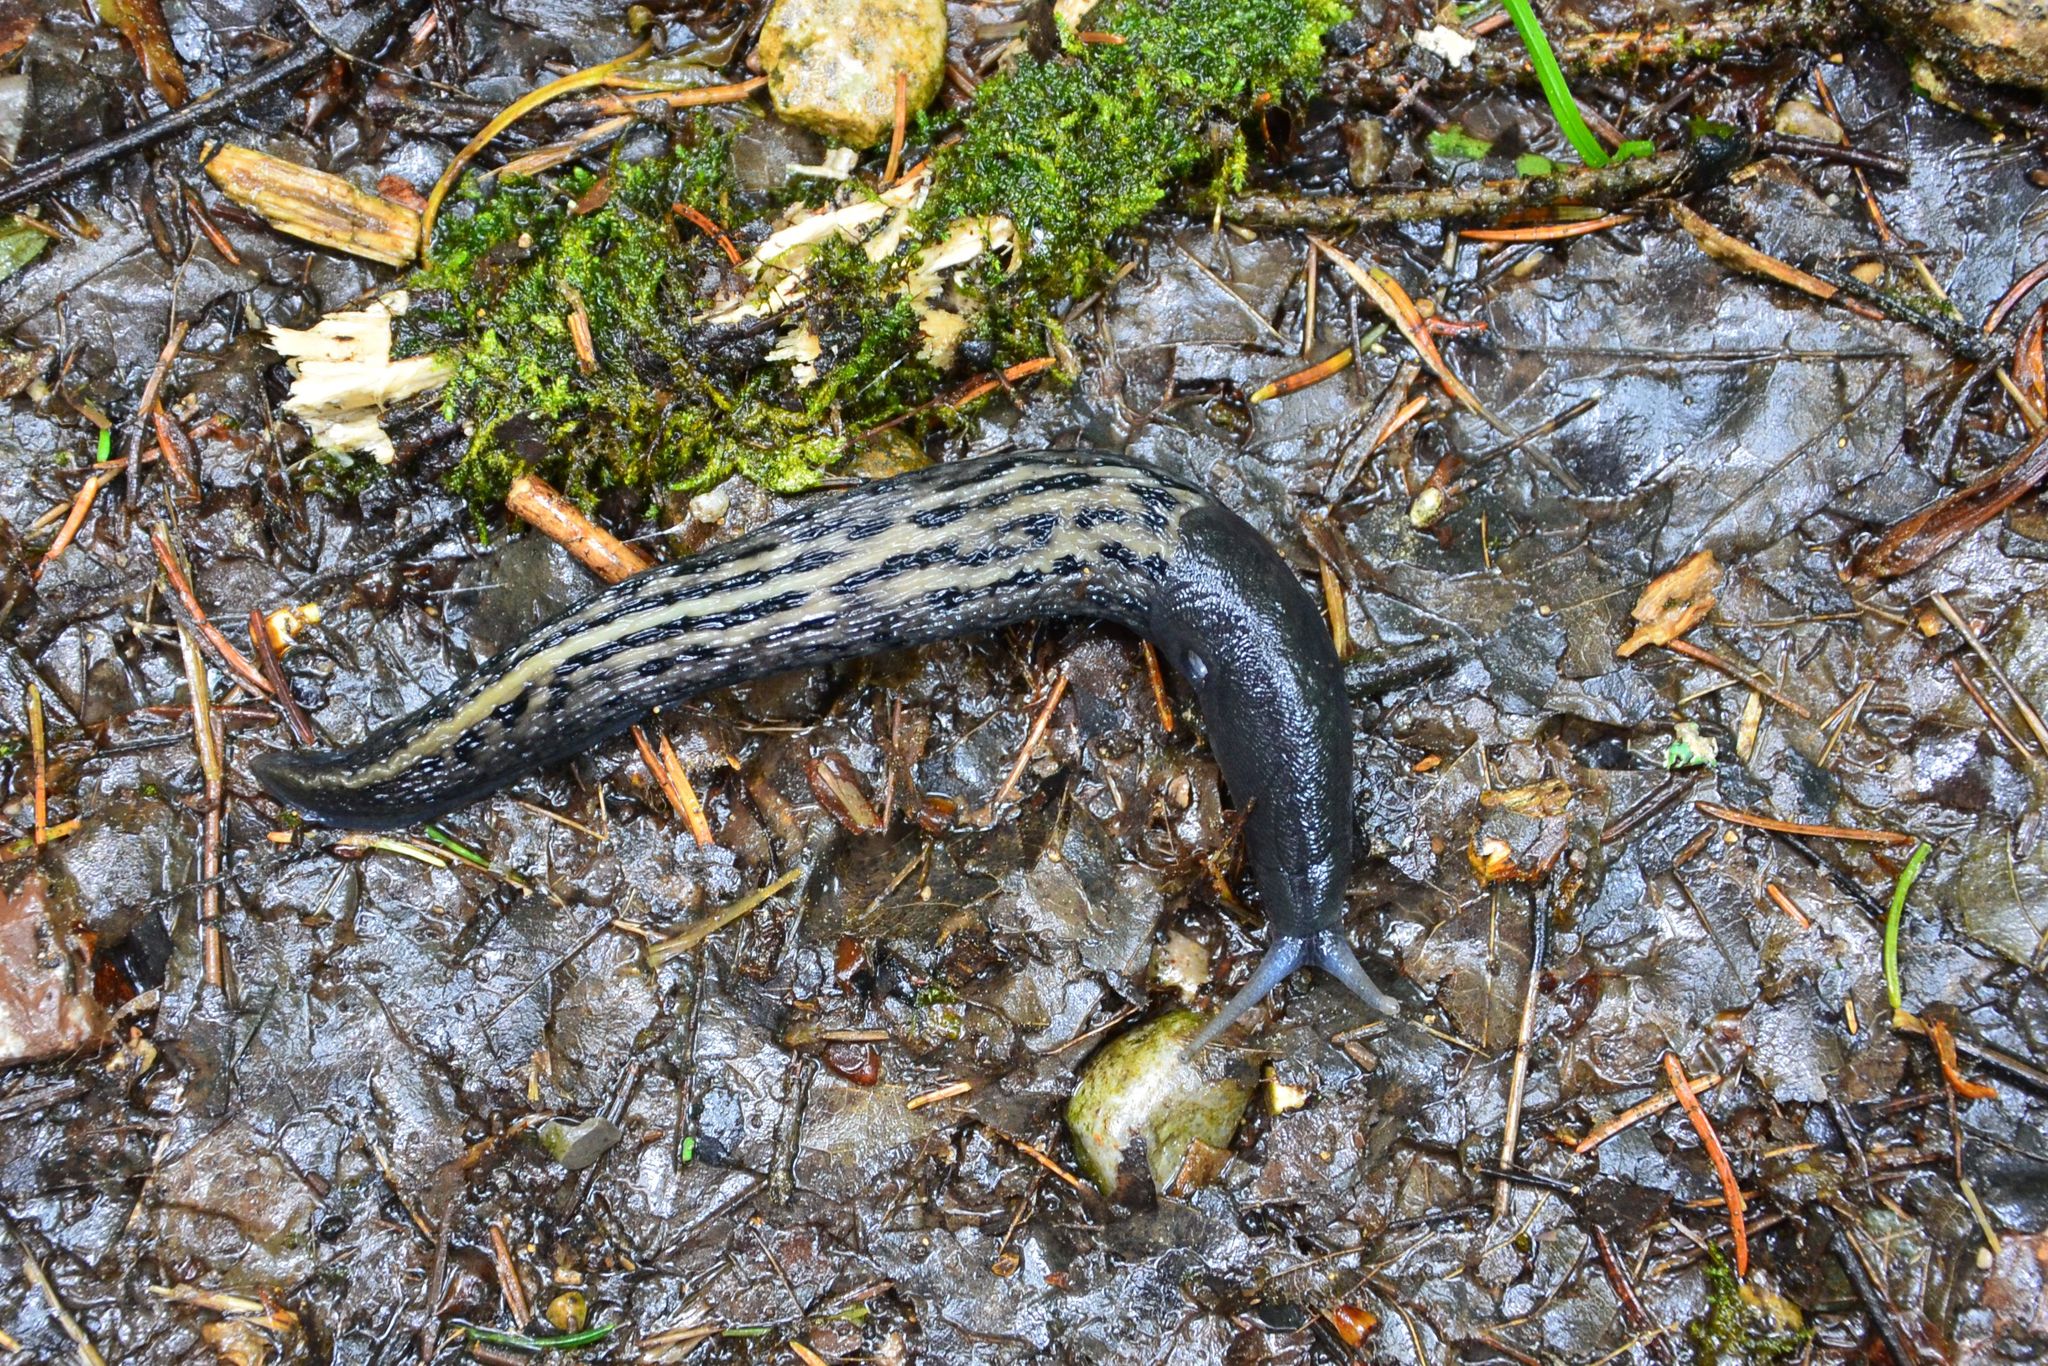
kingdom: Animalia
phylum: Mollusca
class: Gastropoda
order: Stylommatophora
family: Limacidae
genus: Limax
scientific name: Limax cinereoniger
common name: Ash-black slug
